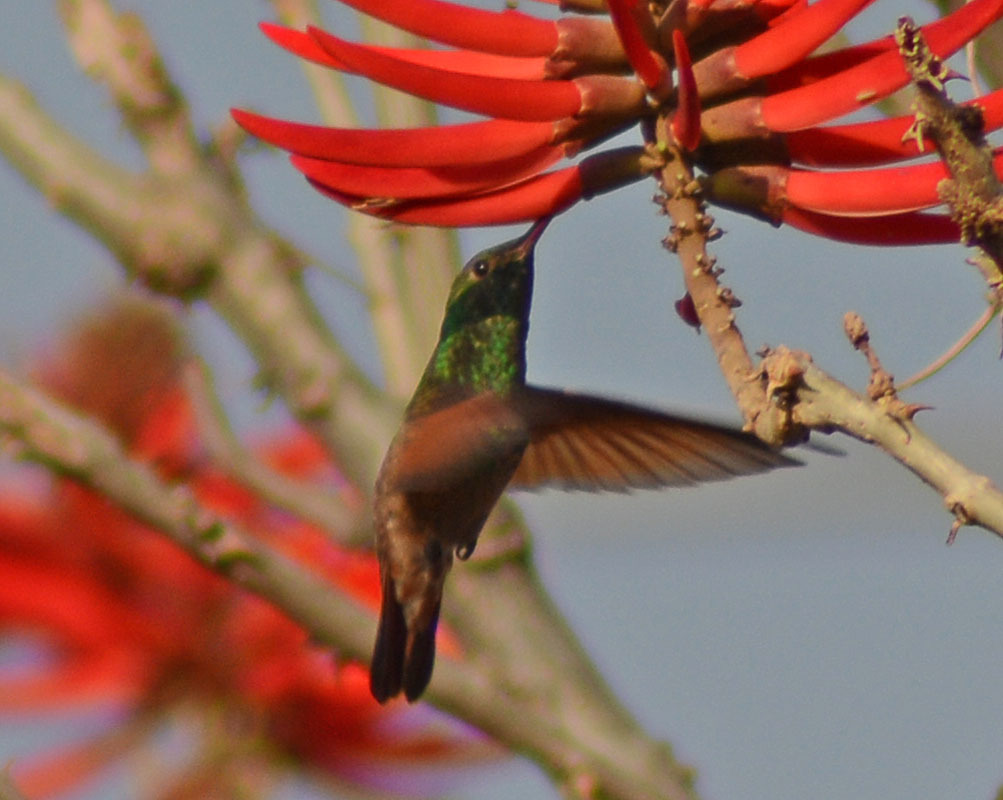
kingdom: Animalia
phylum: Chordata
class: Aves
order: Apodiformes
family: Trochilidae
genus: Saucerottia
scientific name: Saucerottia beryllina
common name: Berylline hummingbird
